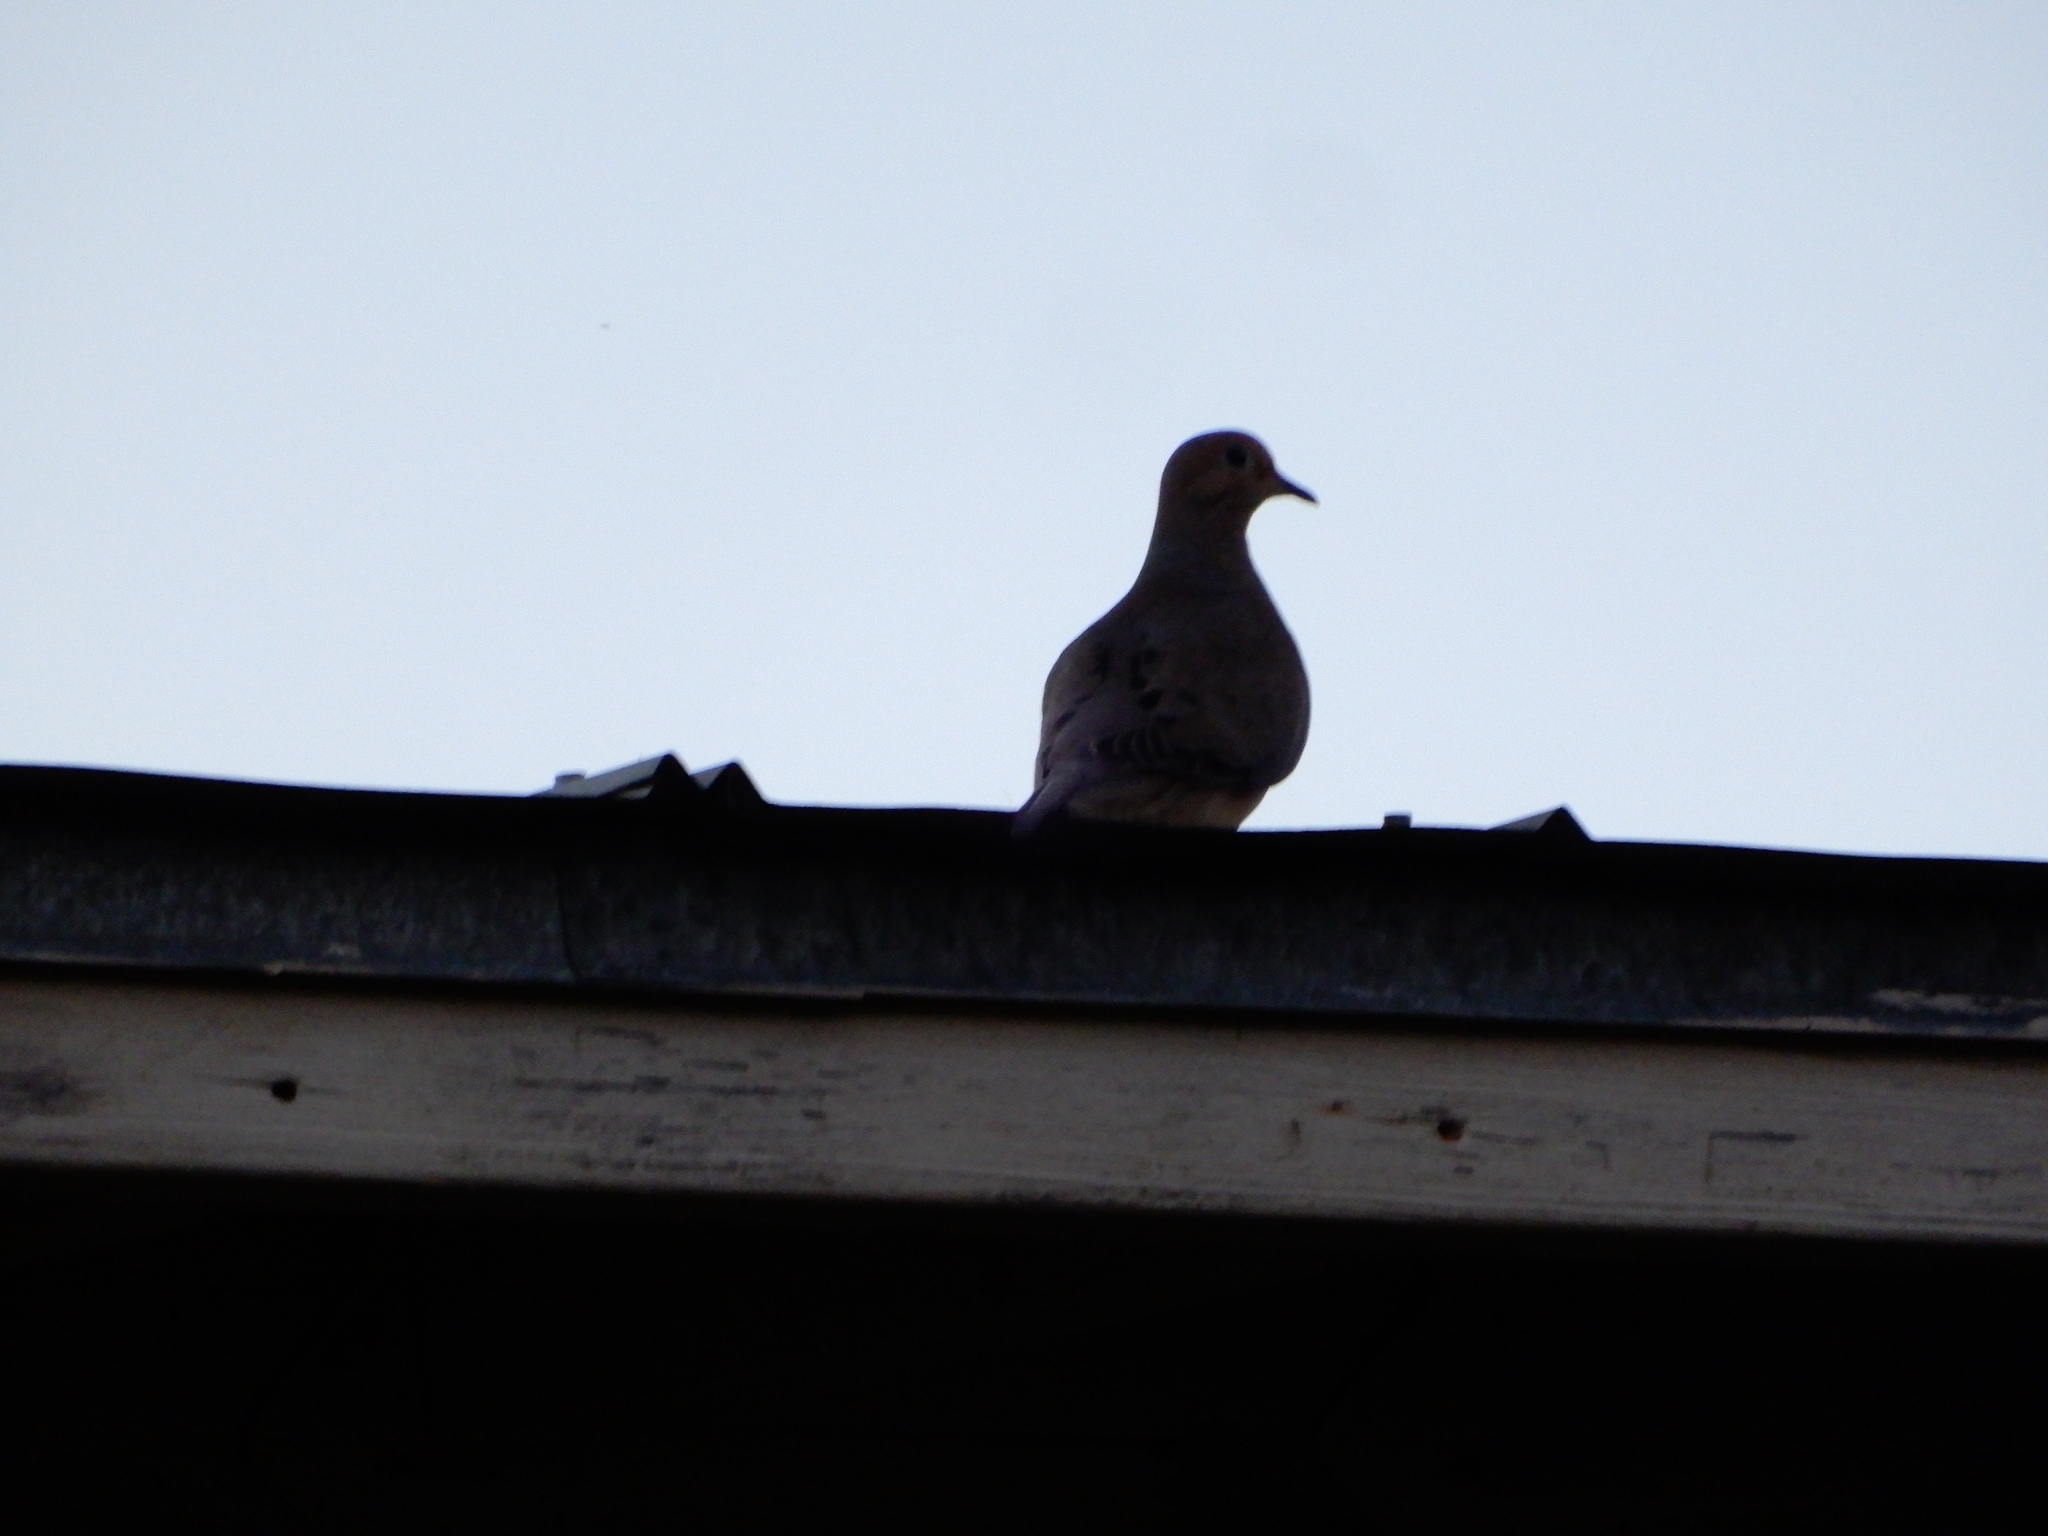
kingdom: Animalia
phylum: Chordata
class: Aves
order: Columbiformes
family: Columbidae
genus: Zenaida
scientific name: Zenaida macroura
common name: Mourning dove
